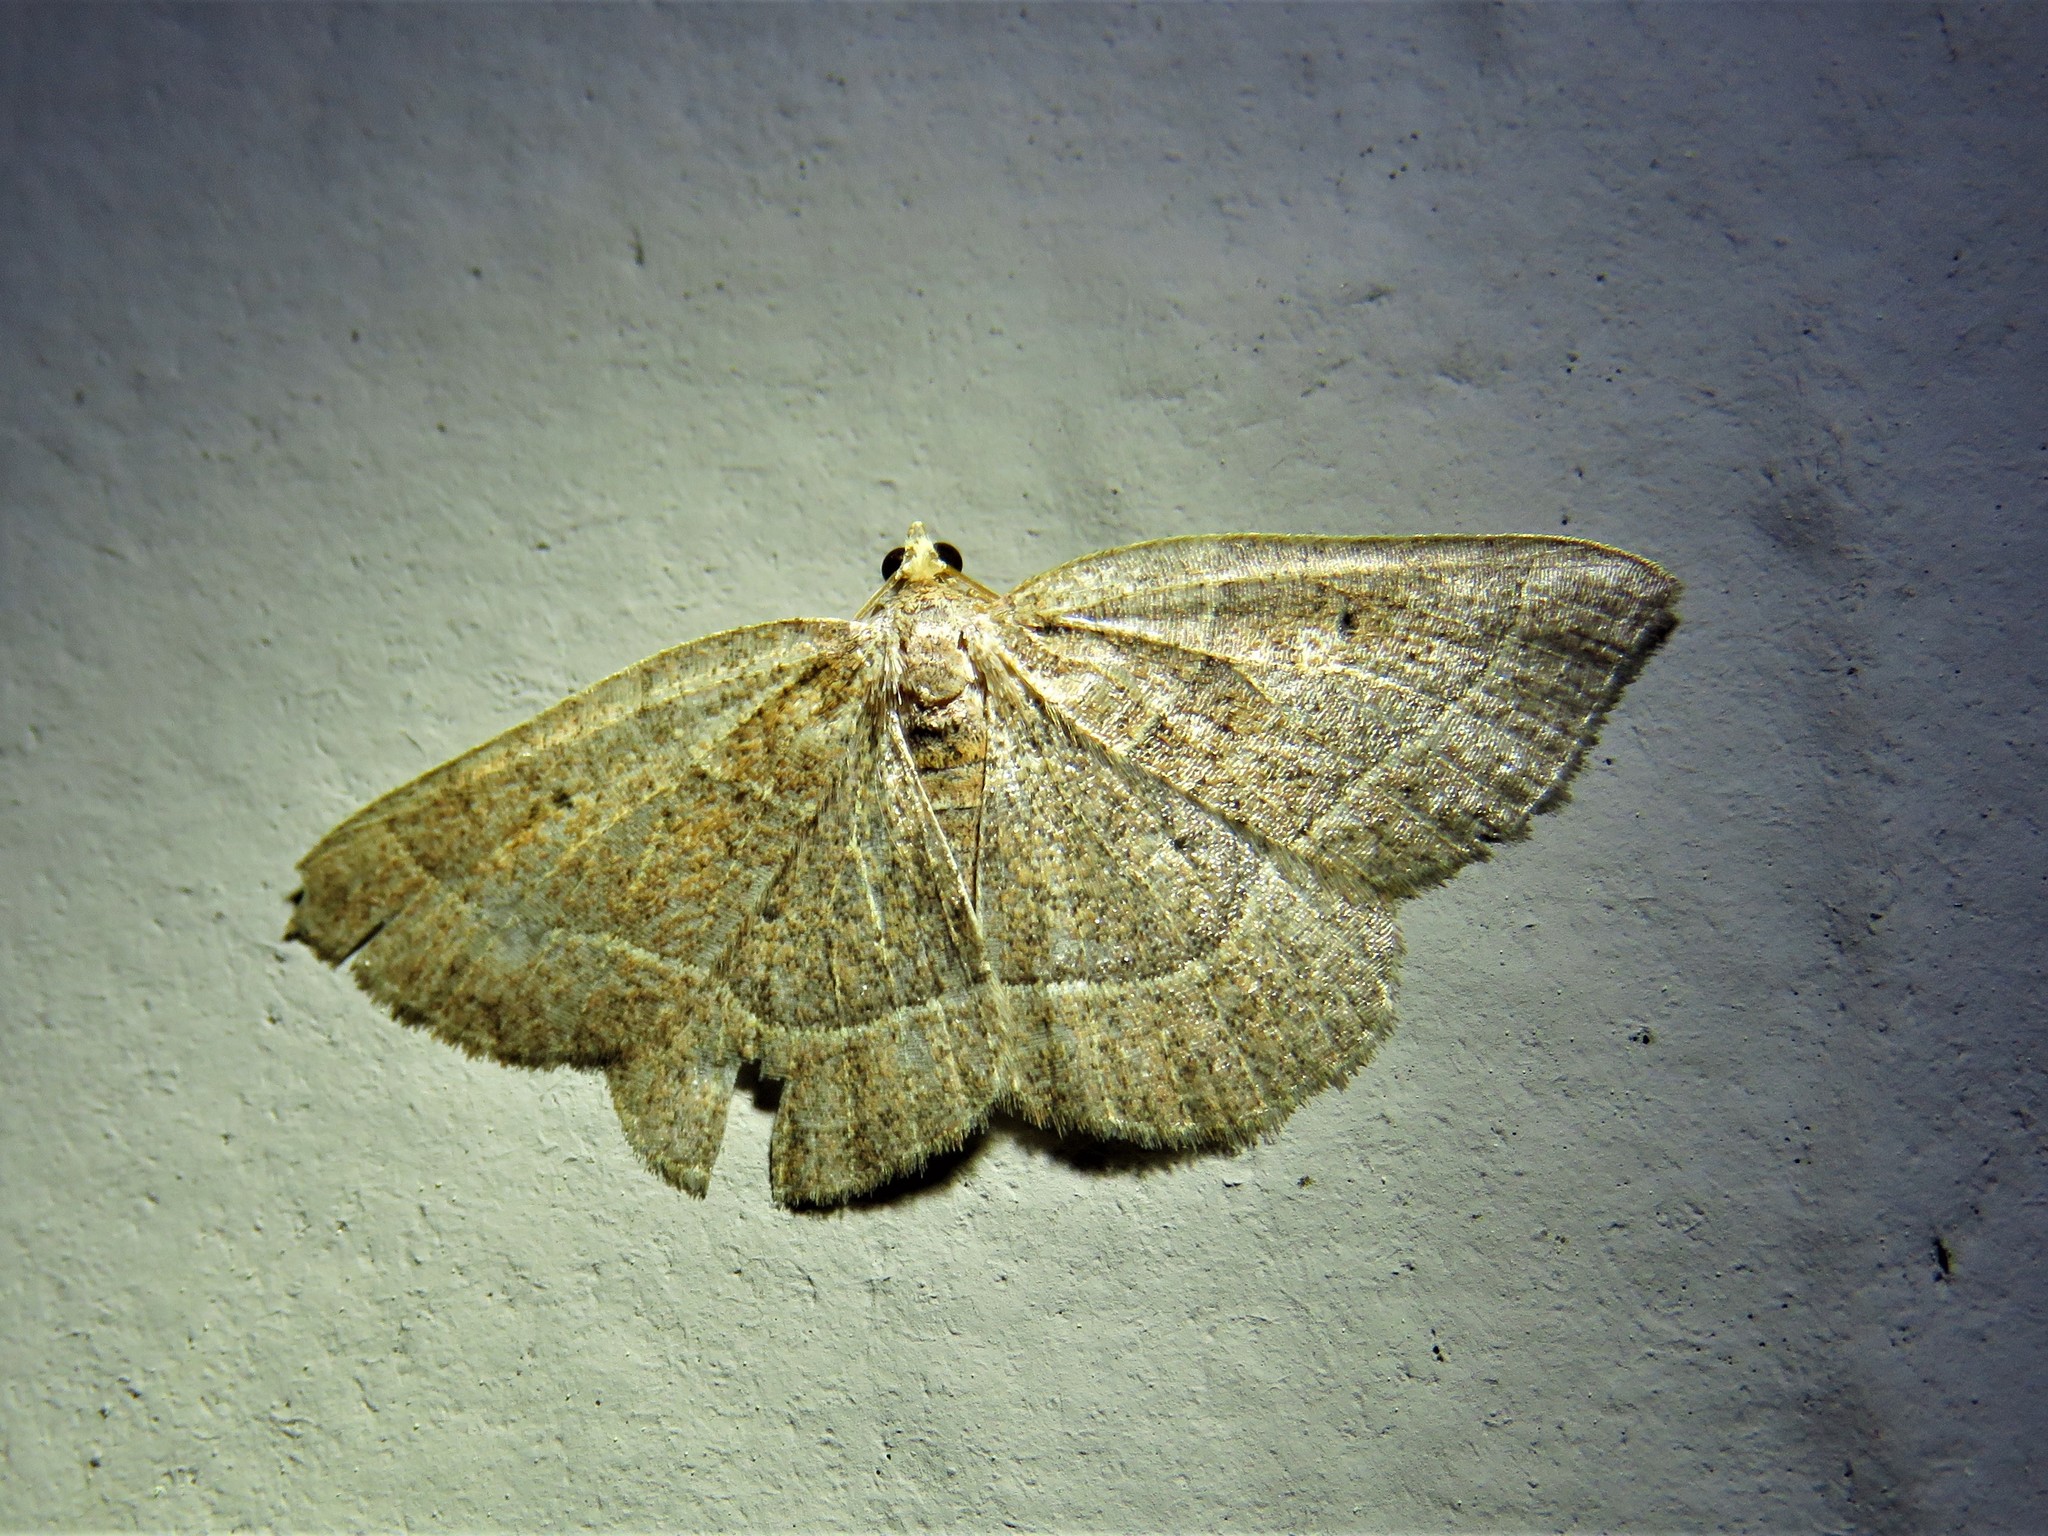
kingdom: Animalia
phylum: Arthropoda
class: Insecta
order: Lepidoptera
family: Geometridae
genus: Episemasia
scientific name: Episemasia cervinaria
